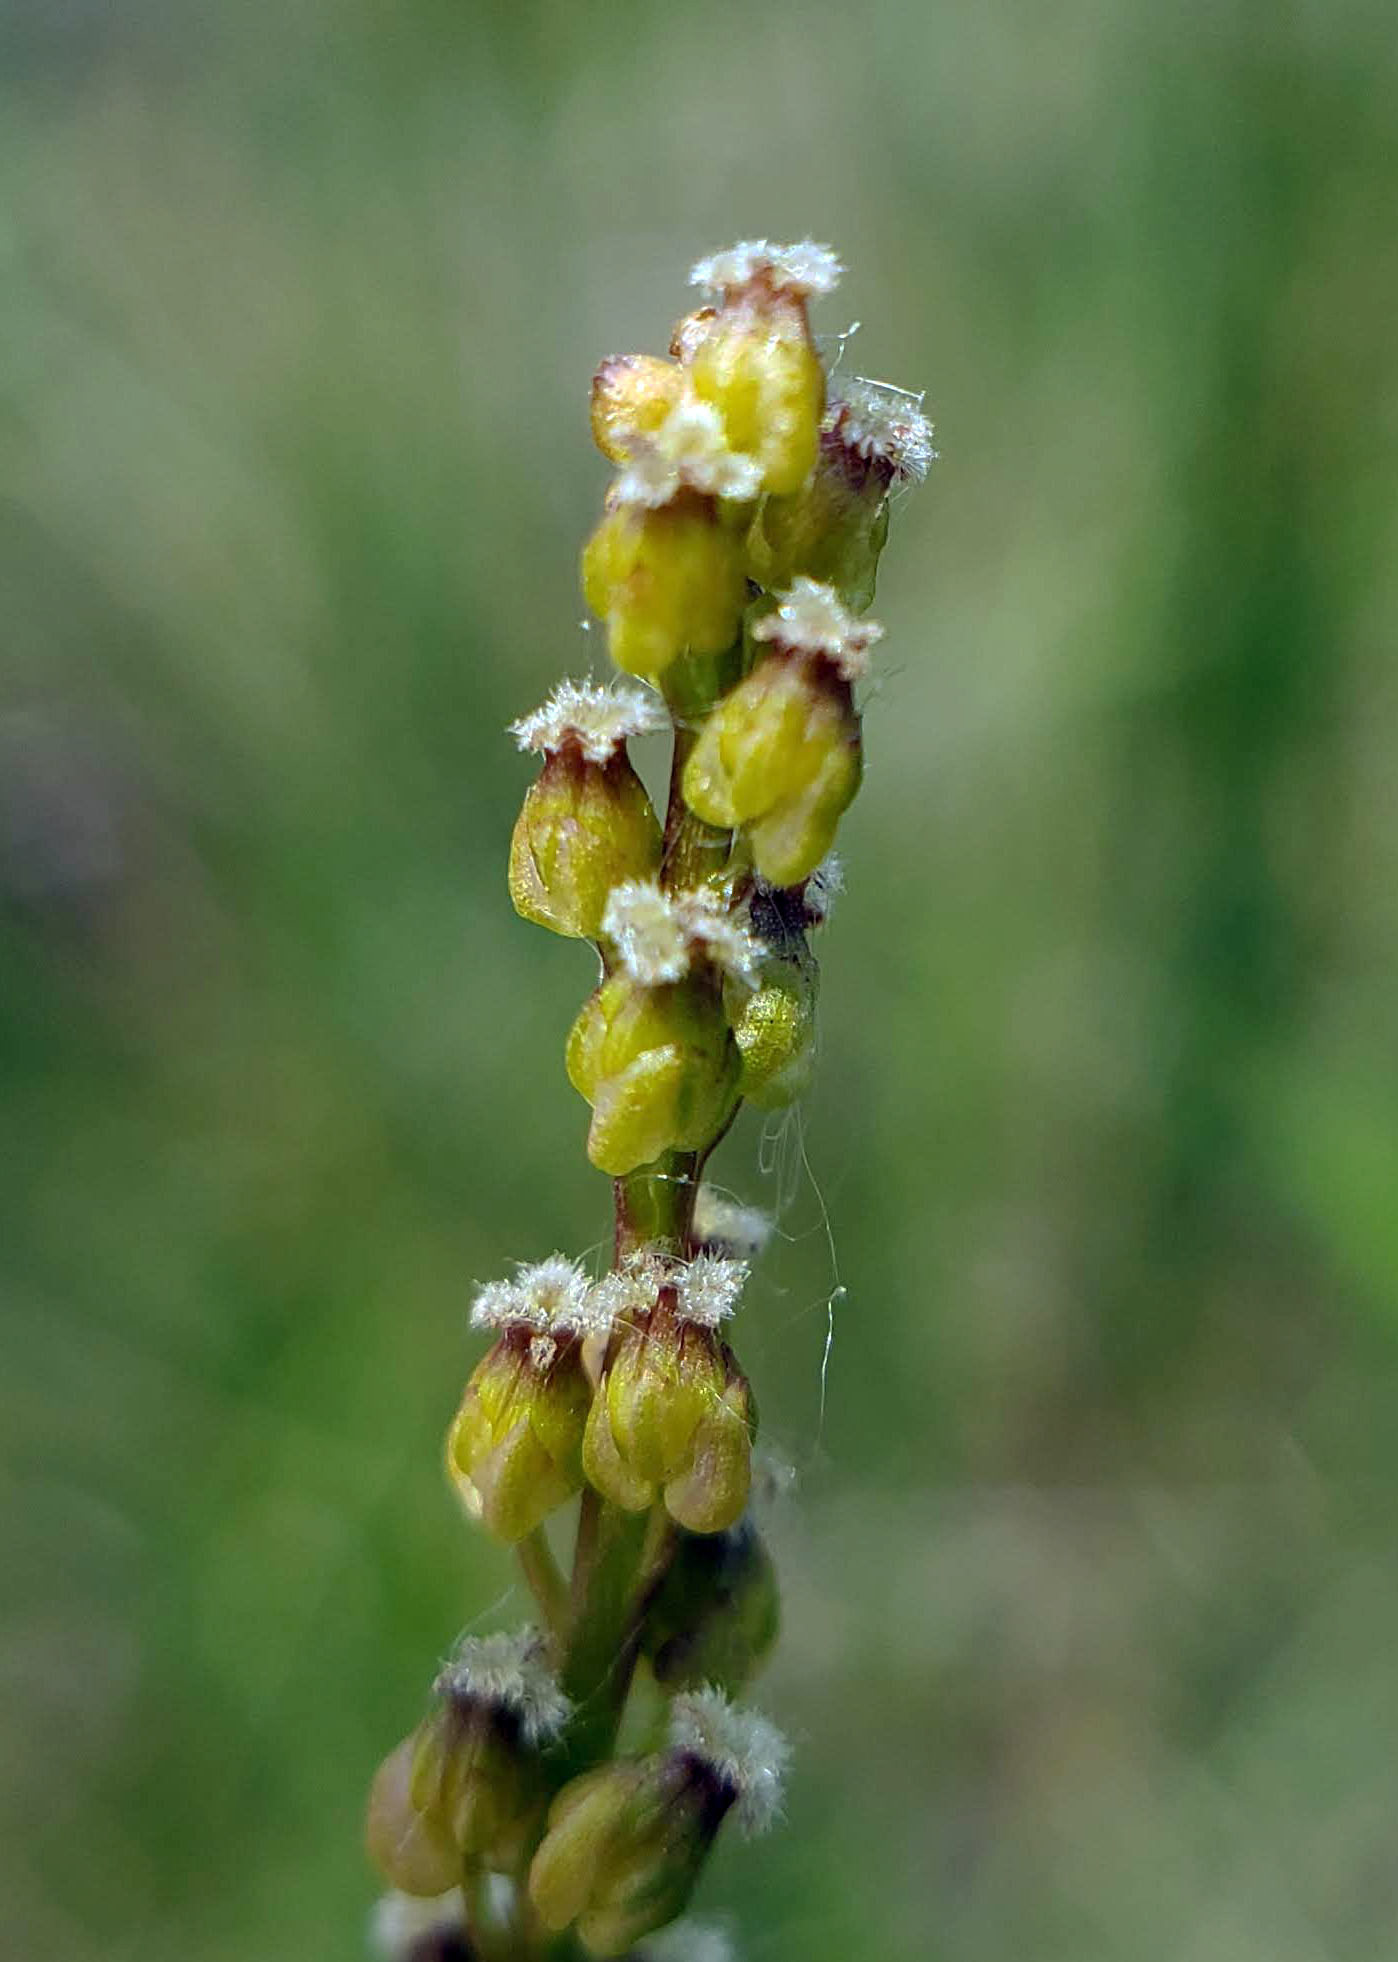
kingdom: Plantae
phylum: Tracheophyta
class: Liliopsida
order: Alismatales
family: Juncaginaceae
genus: Triglochin
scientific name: Triglochin maritima
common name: Sea arrowgrass
